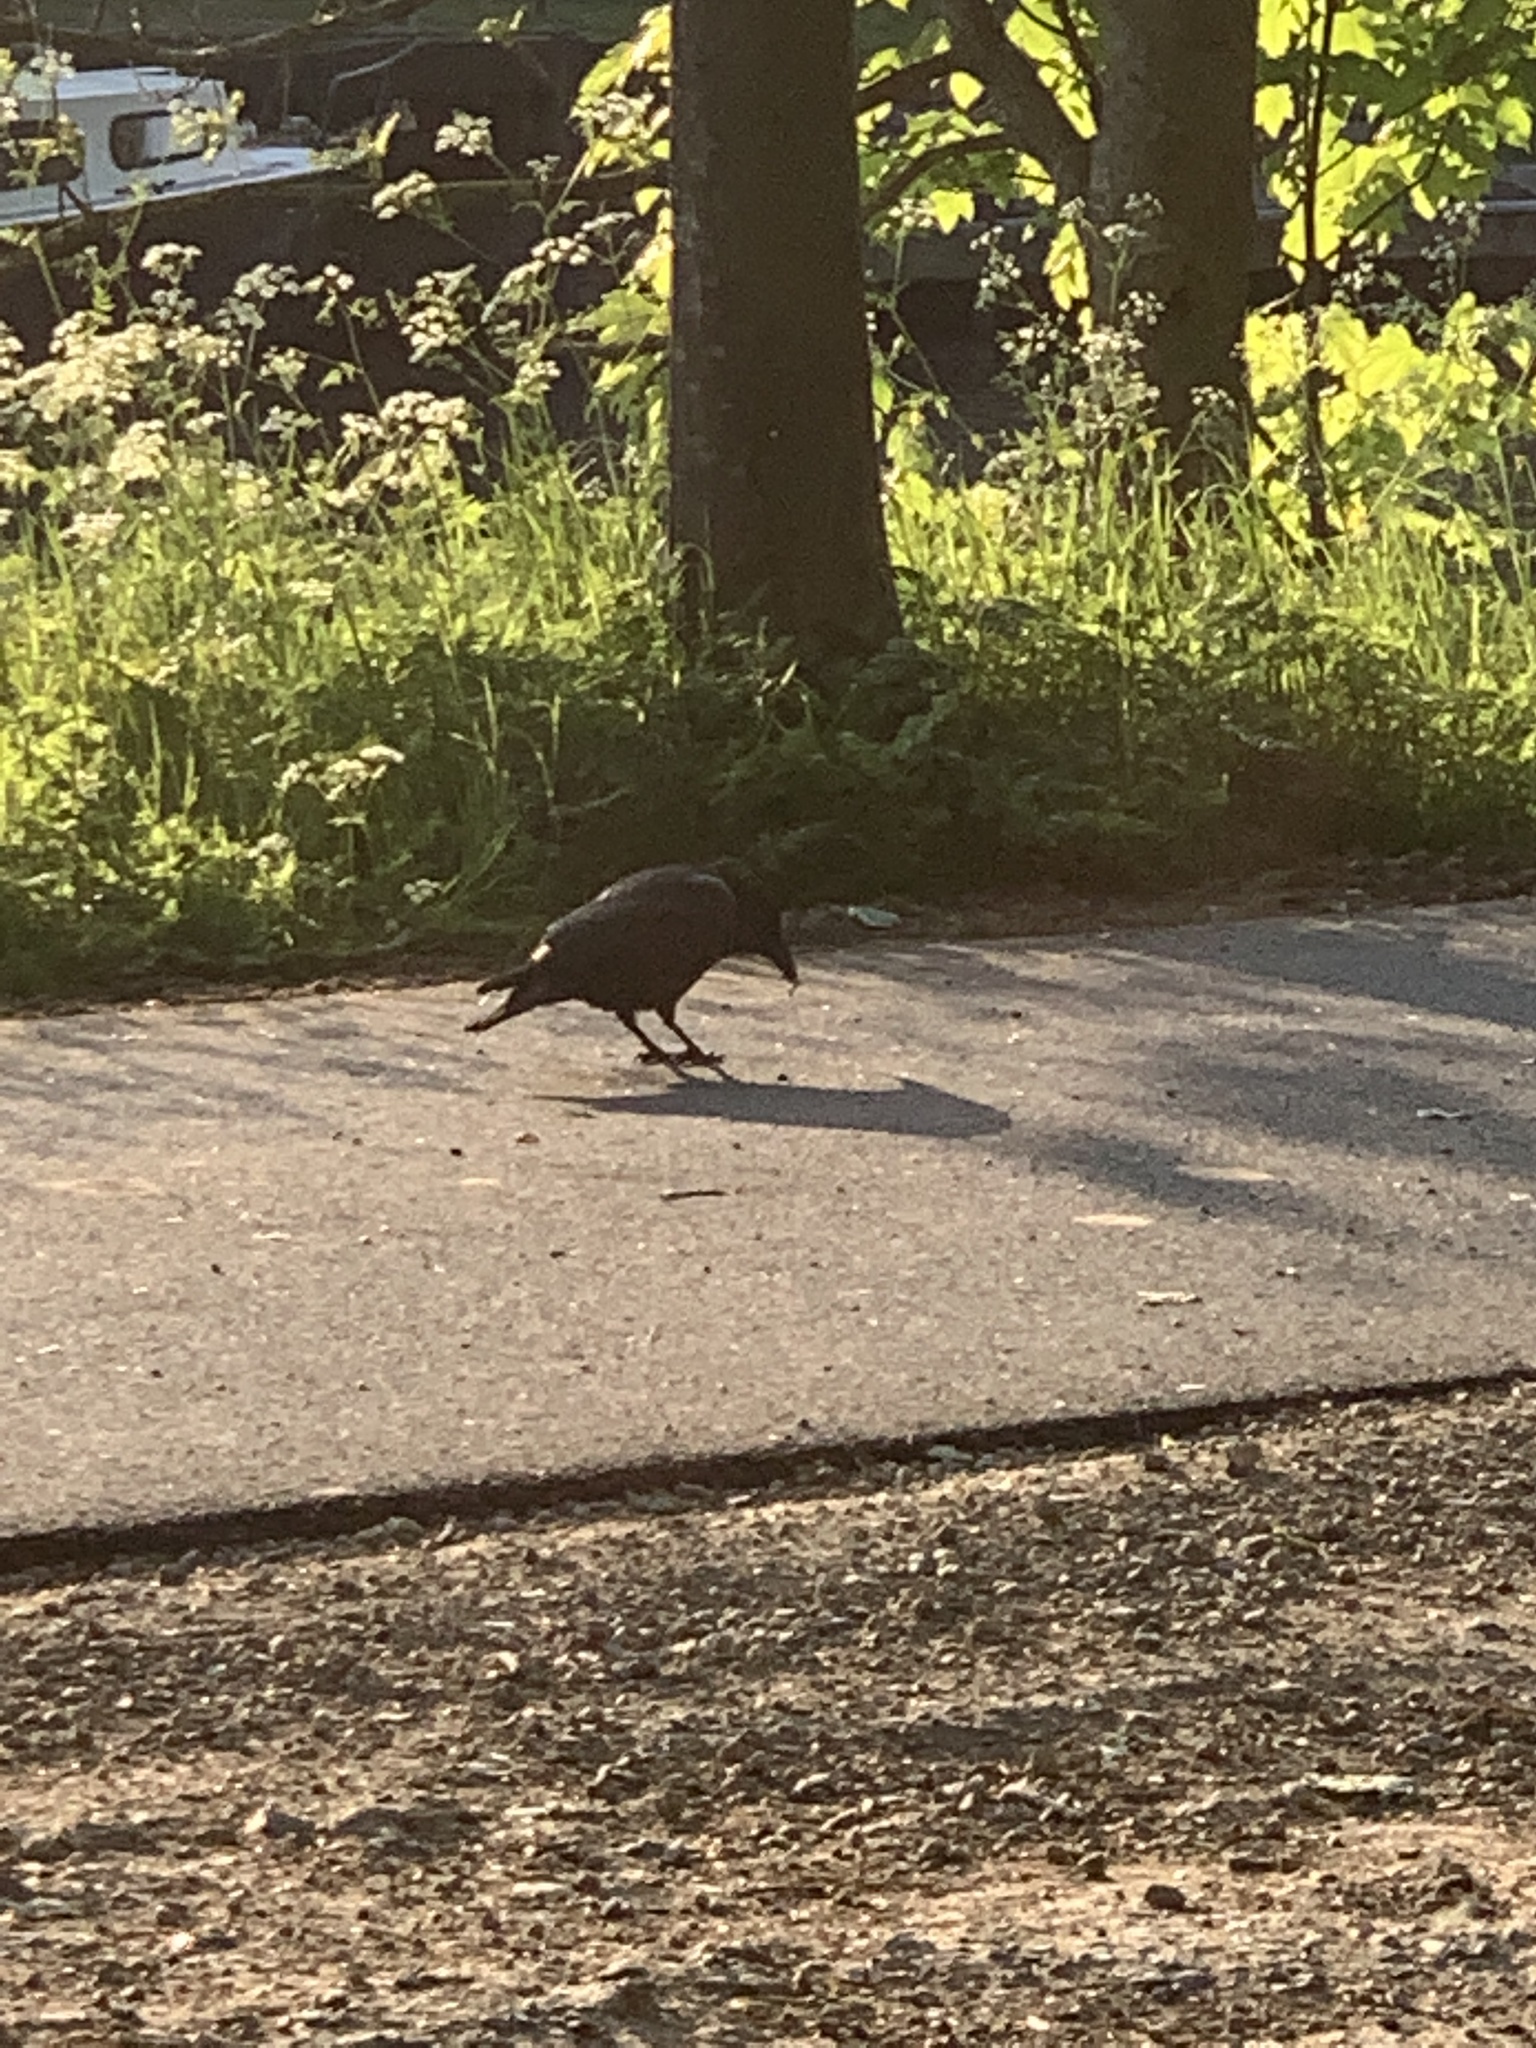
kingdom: Animalia
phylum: Chordata
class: Aves
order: Passeriformes
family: Corvidae
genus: Corvus
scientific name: Corvus corone
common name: Carrion crow
